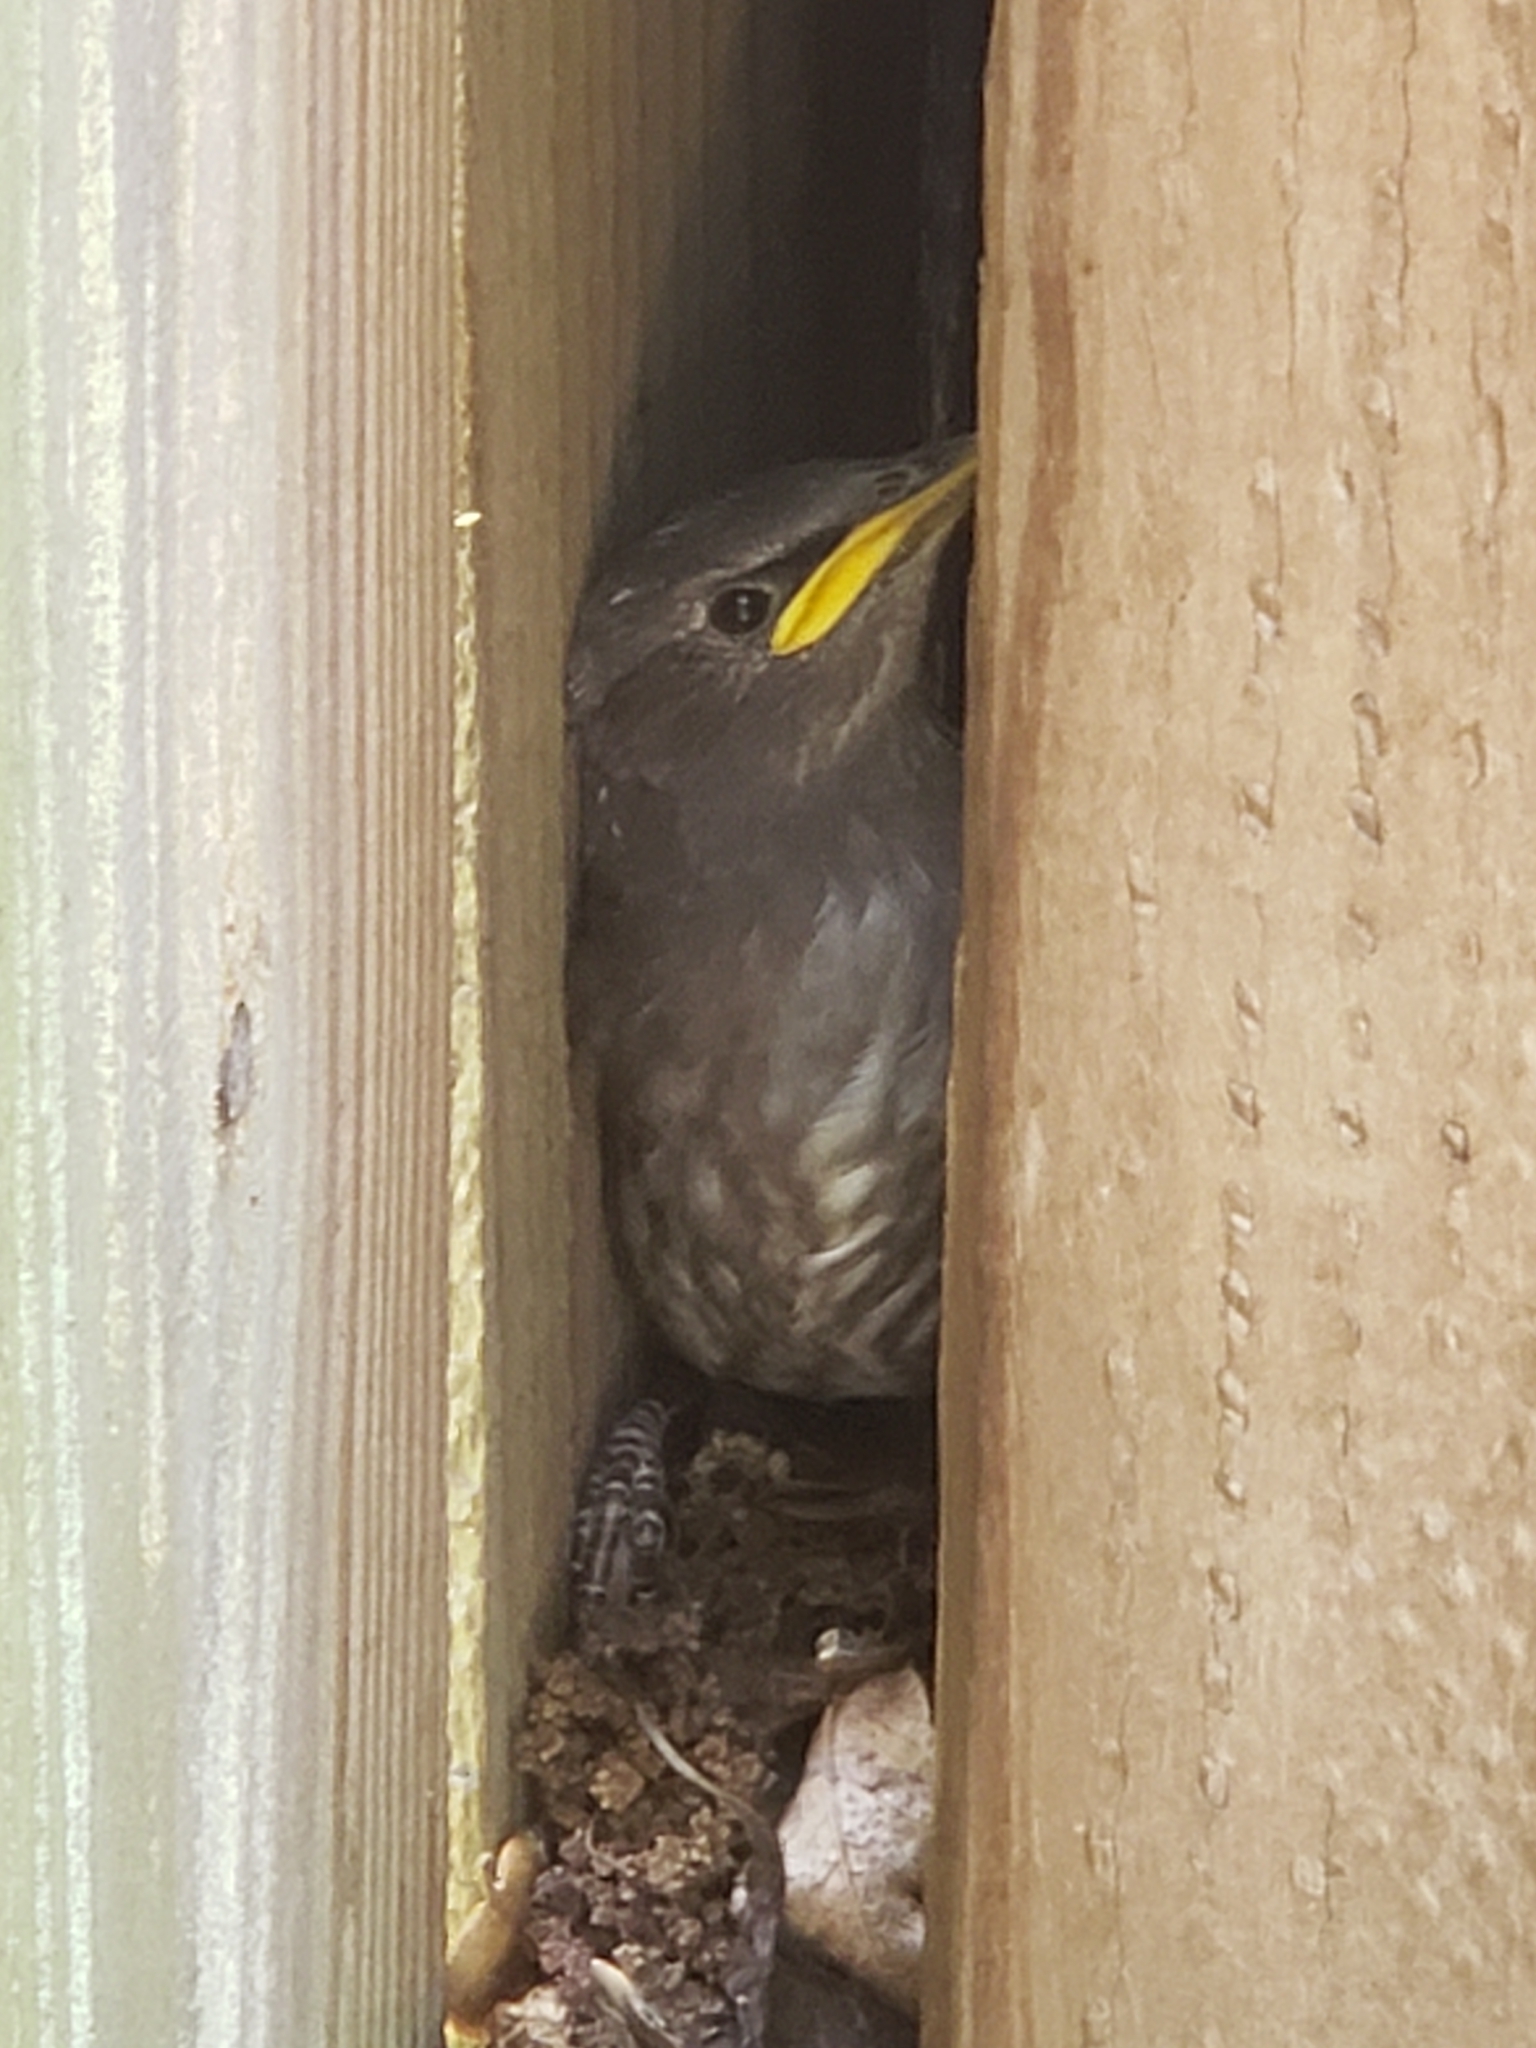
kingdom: Animalia
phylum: Chordata
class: Aves
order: Passeriformes
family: Sturnidae
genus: Sturnus
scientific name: Sturnus vulgaris
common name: Common starling
